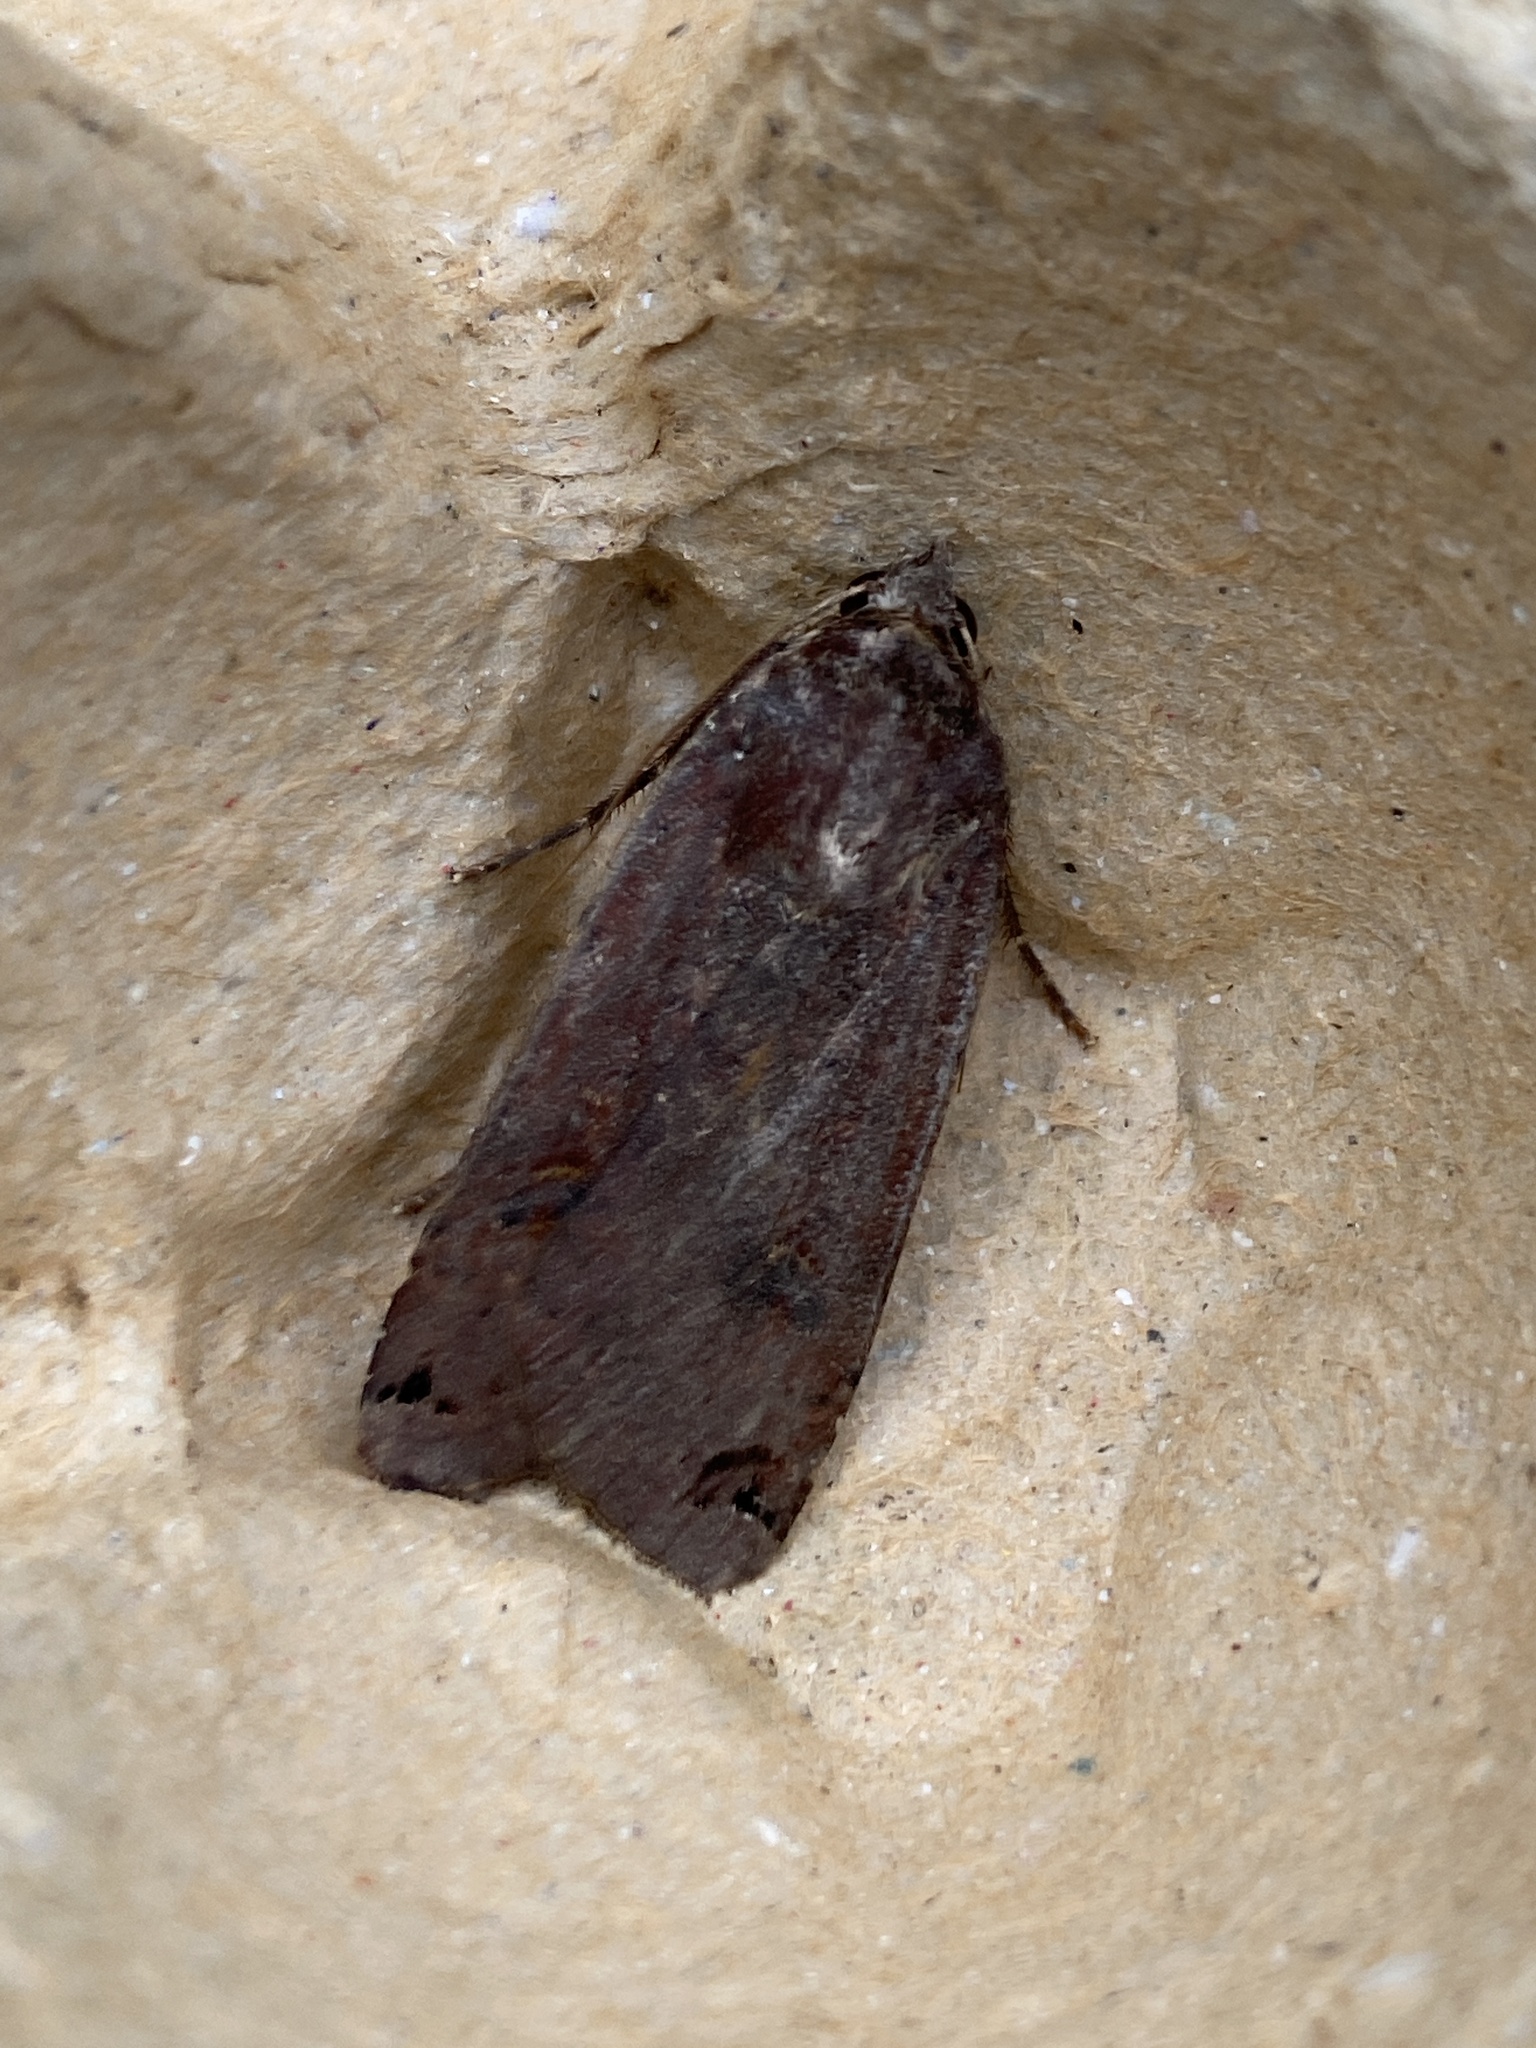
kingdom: Animalia
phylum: Arthropoda
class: Insecta
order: Lepidoptera
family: Noctuidae
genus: Noctua
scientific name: Noctua pronuba
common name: Large yellow underwing
